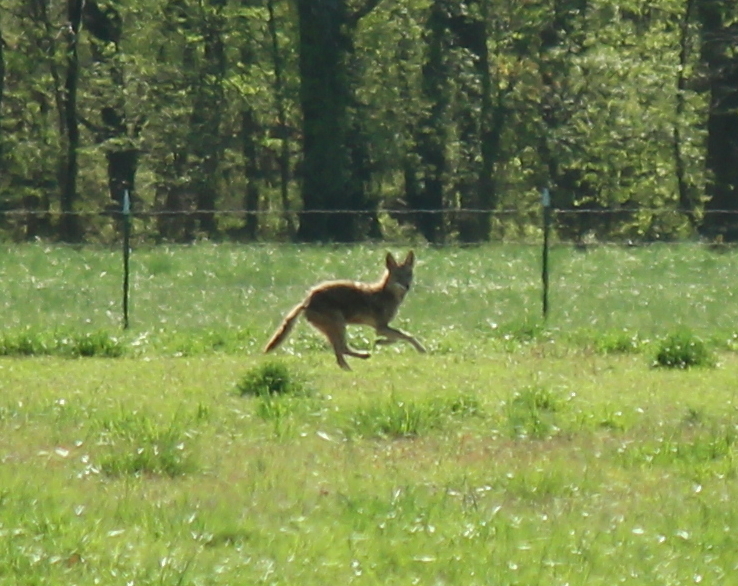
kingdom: Animalia
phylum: Chordata
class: Mammalia
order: Carnivora
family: Canidae
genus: Canis
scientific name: Canis latrans
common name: Coyote
